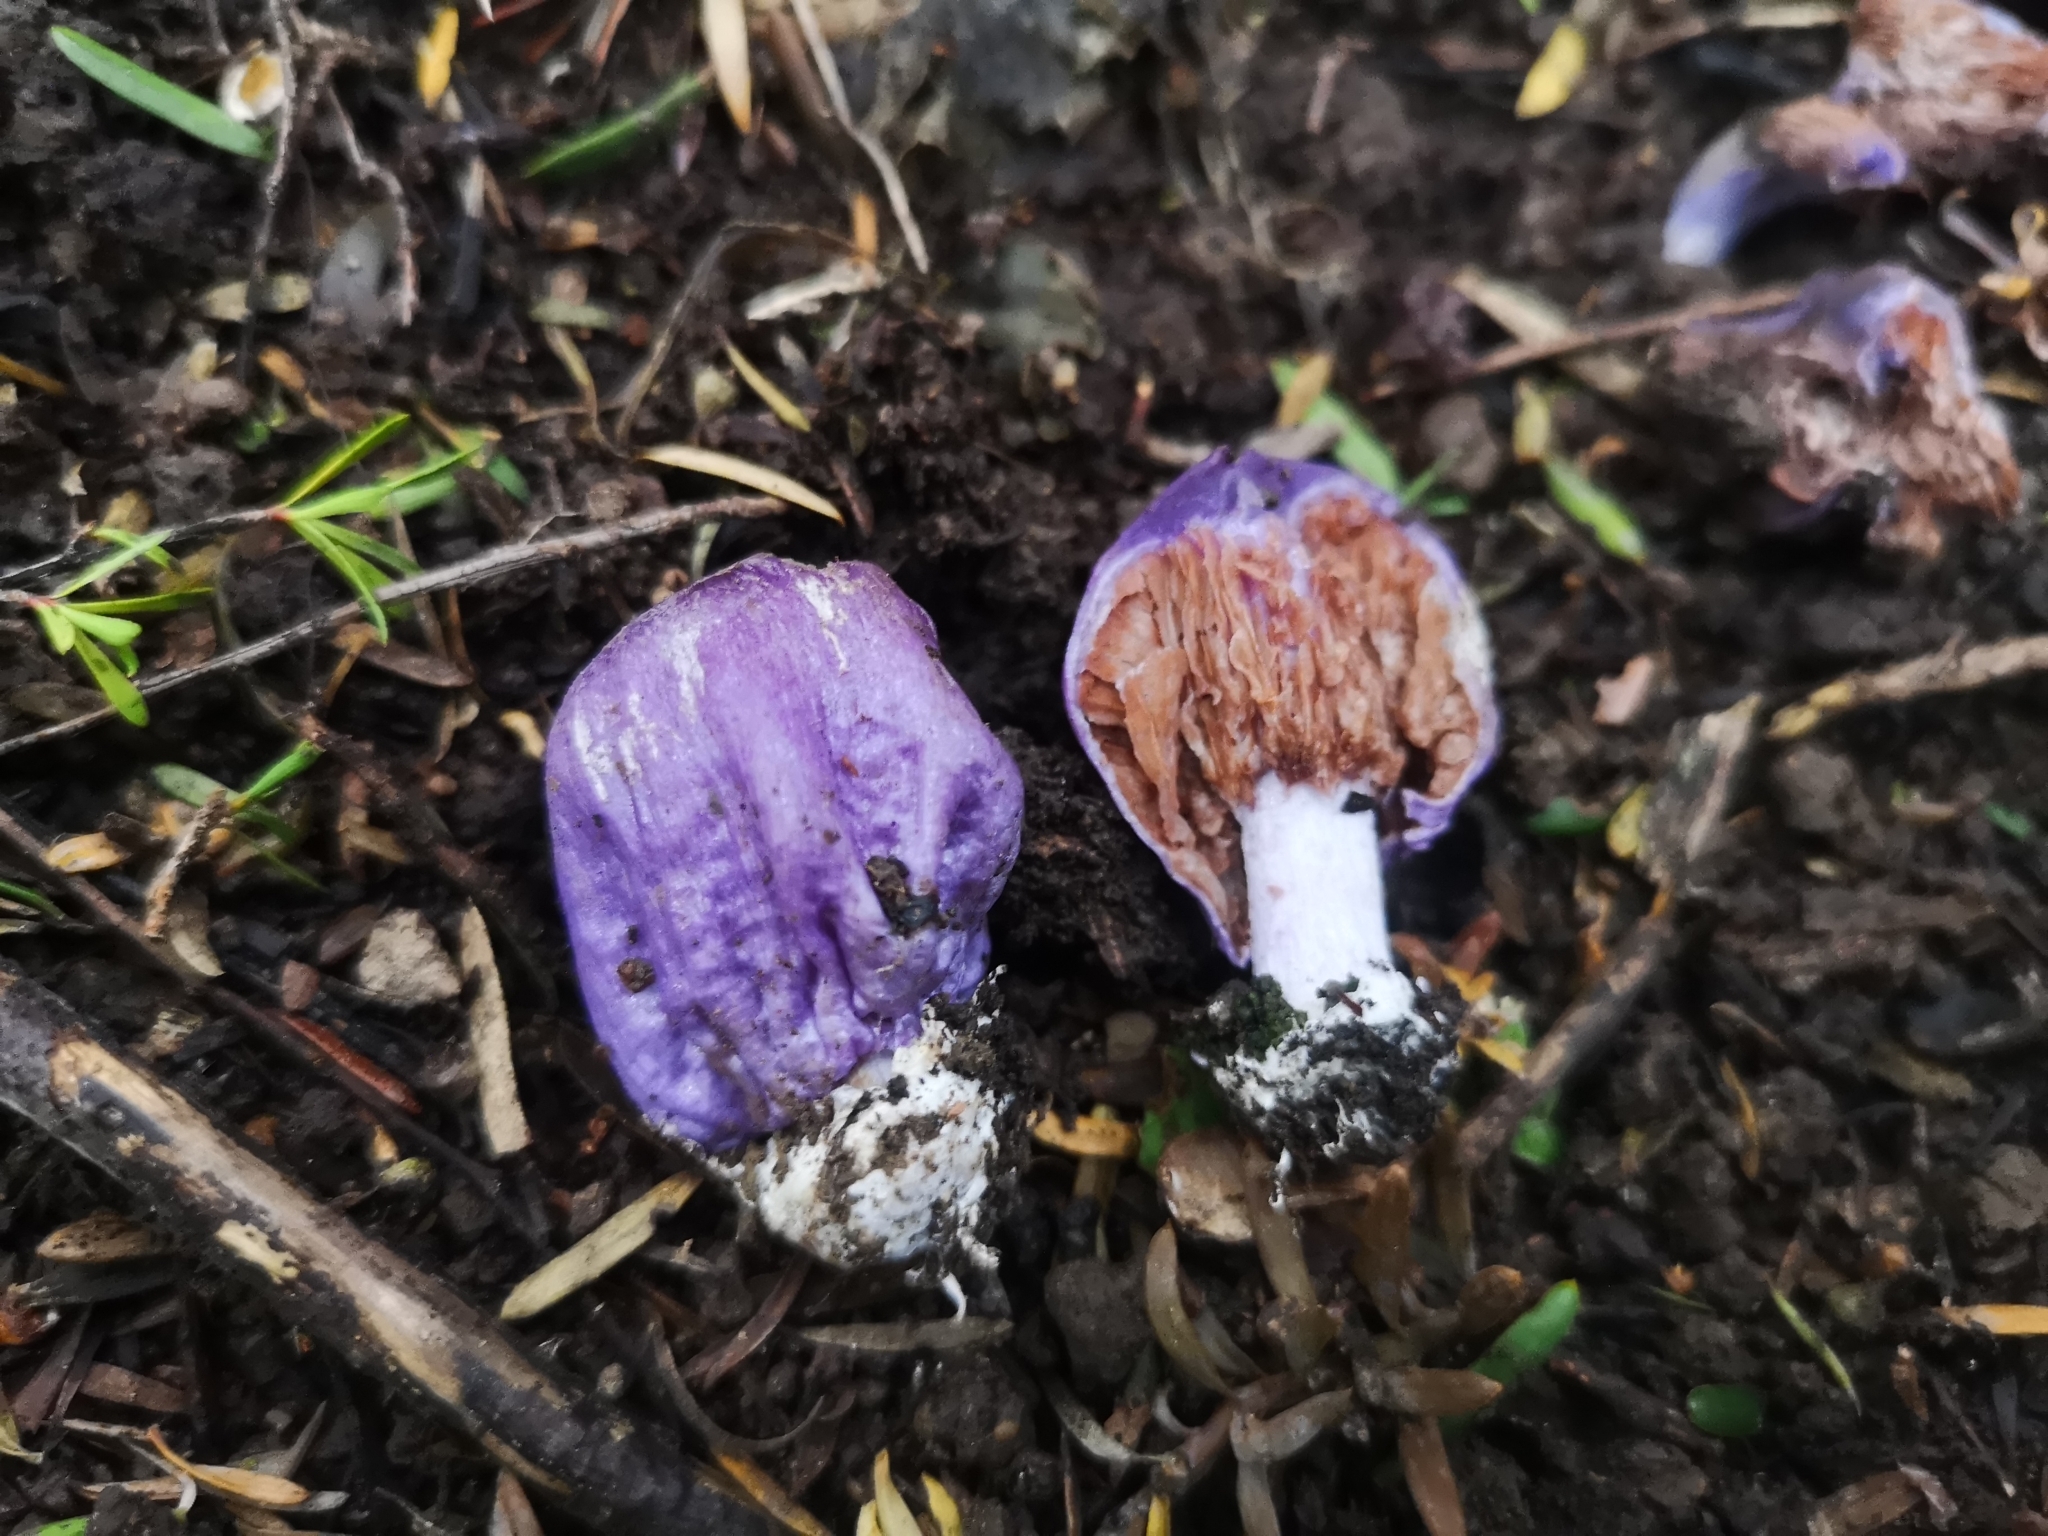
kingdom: Fungi
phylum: Basidiomycota
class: Agaricomycetes
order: Agaricales
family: Cortinariaceae
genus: Cortinarius
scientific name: Cortinarius coneae
